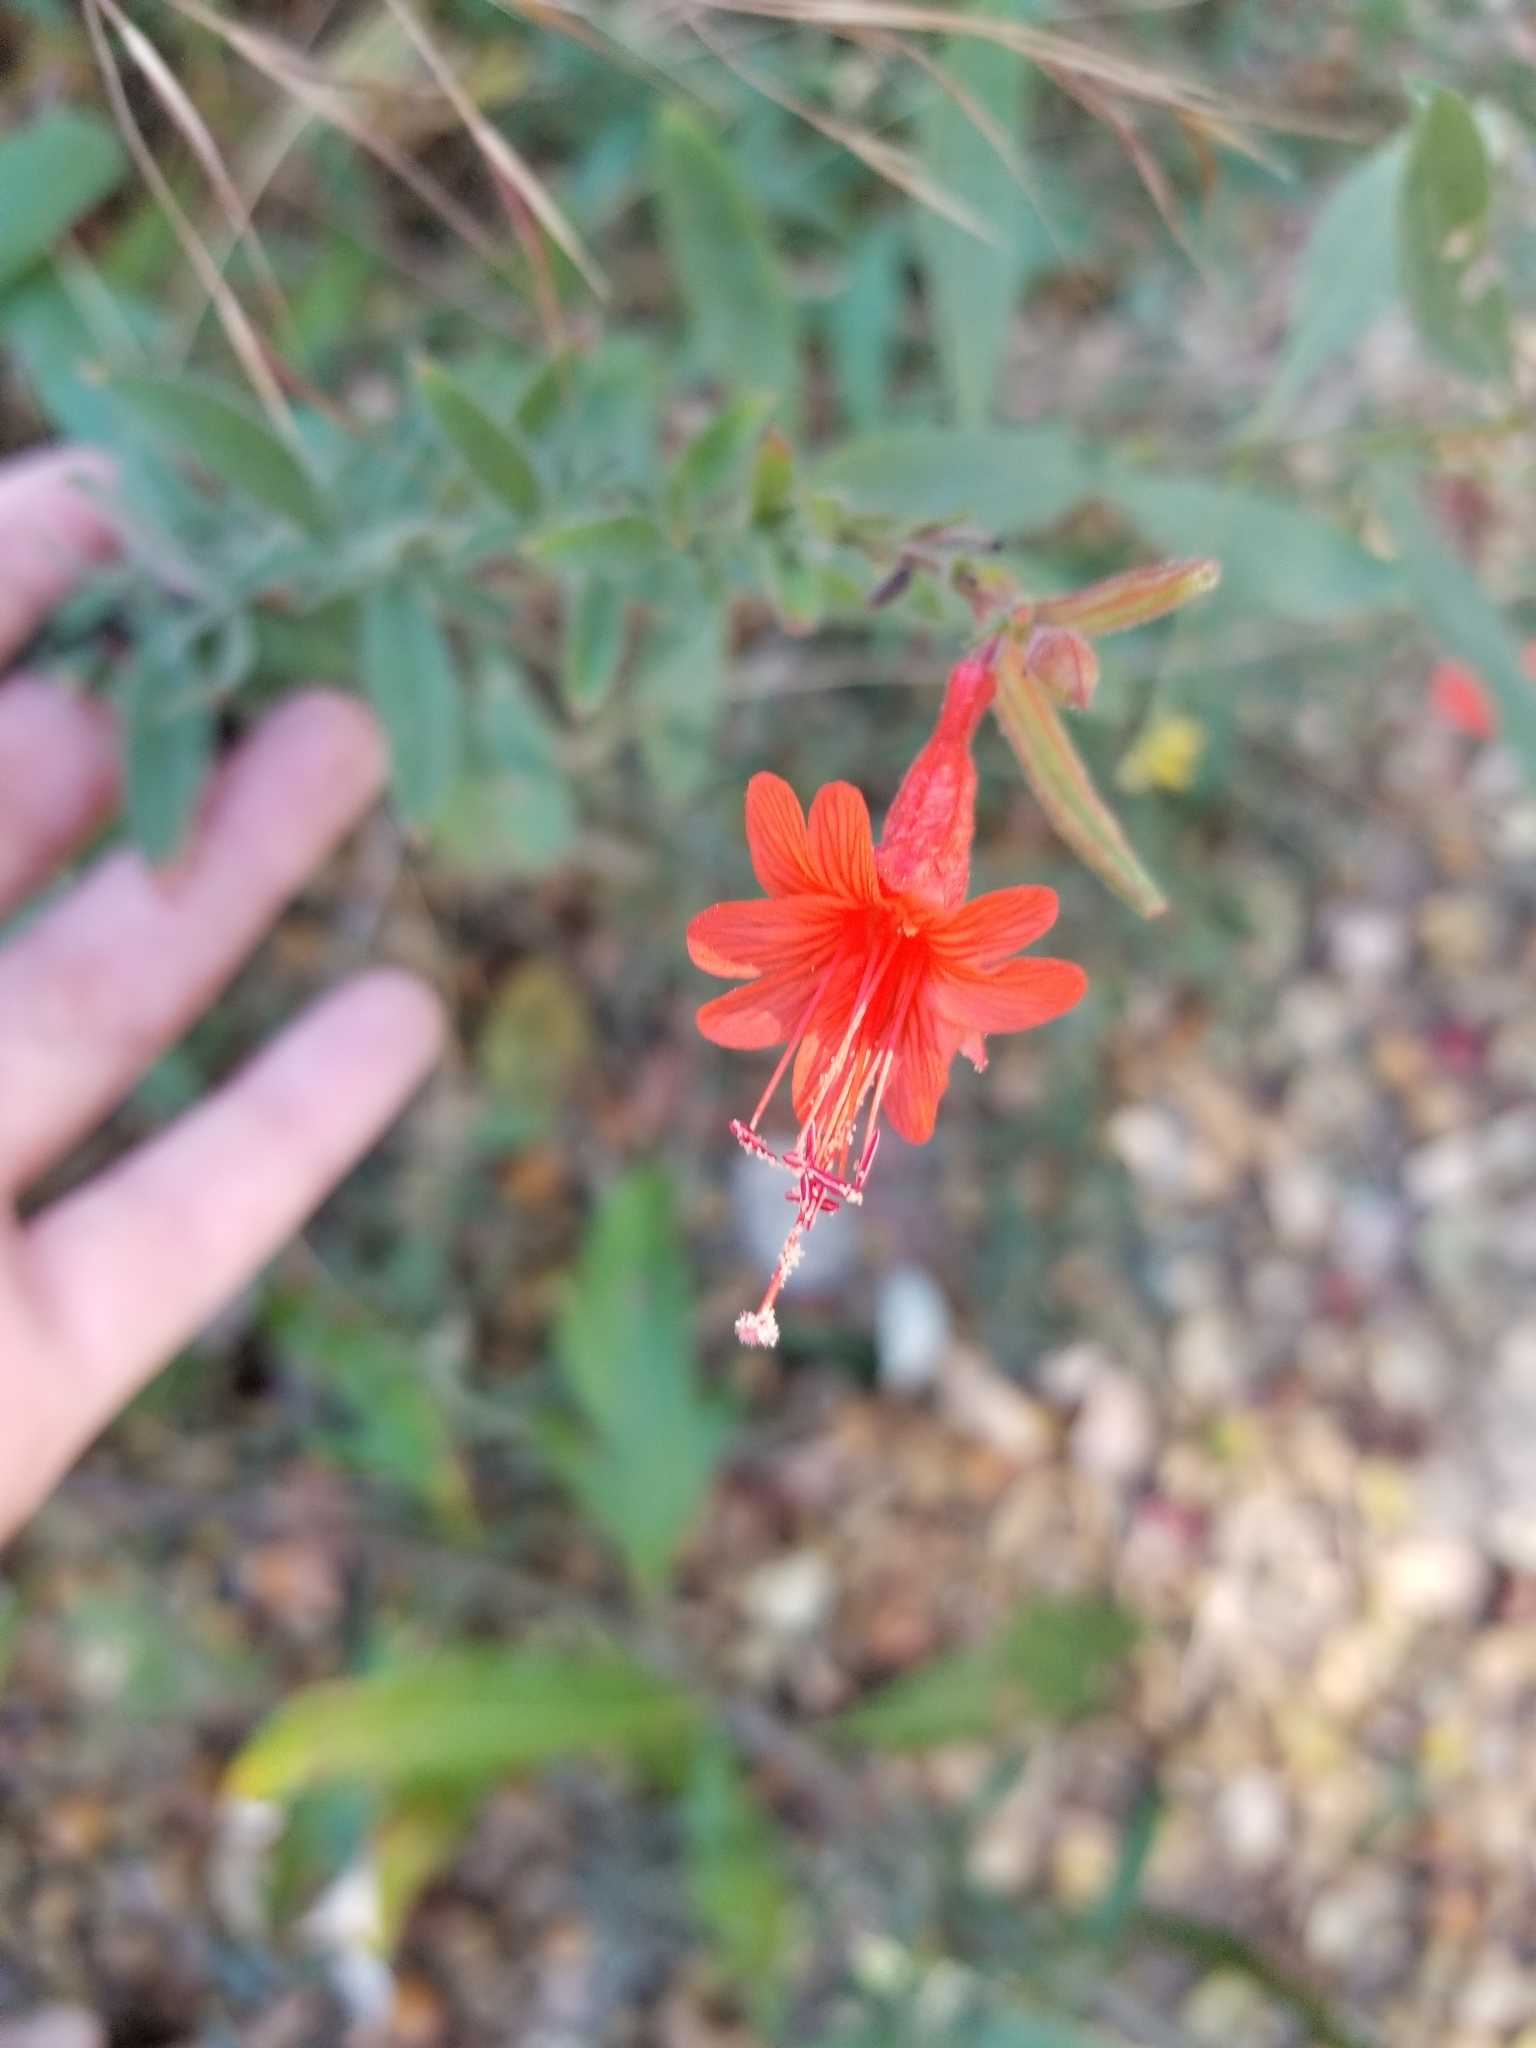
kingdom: Plantae
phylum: Tracheophyta
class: Magnoliopsida
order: Myrtales
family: Onagraceae
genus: Epilobium
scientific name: Epilobium canum
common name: California-fuchsia
